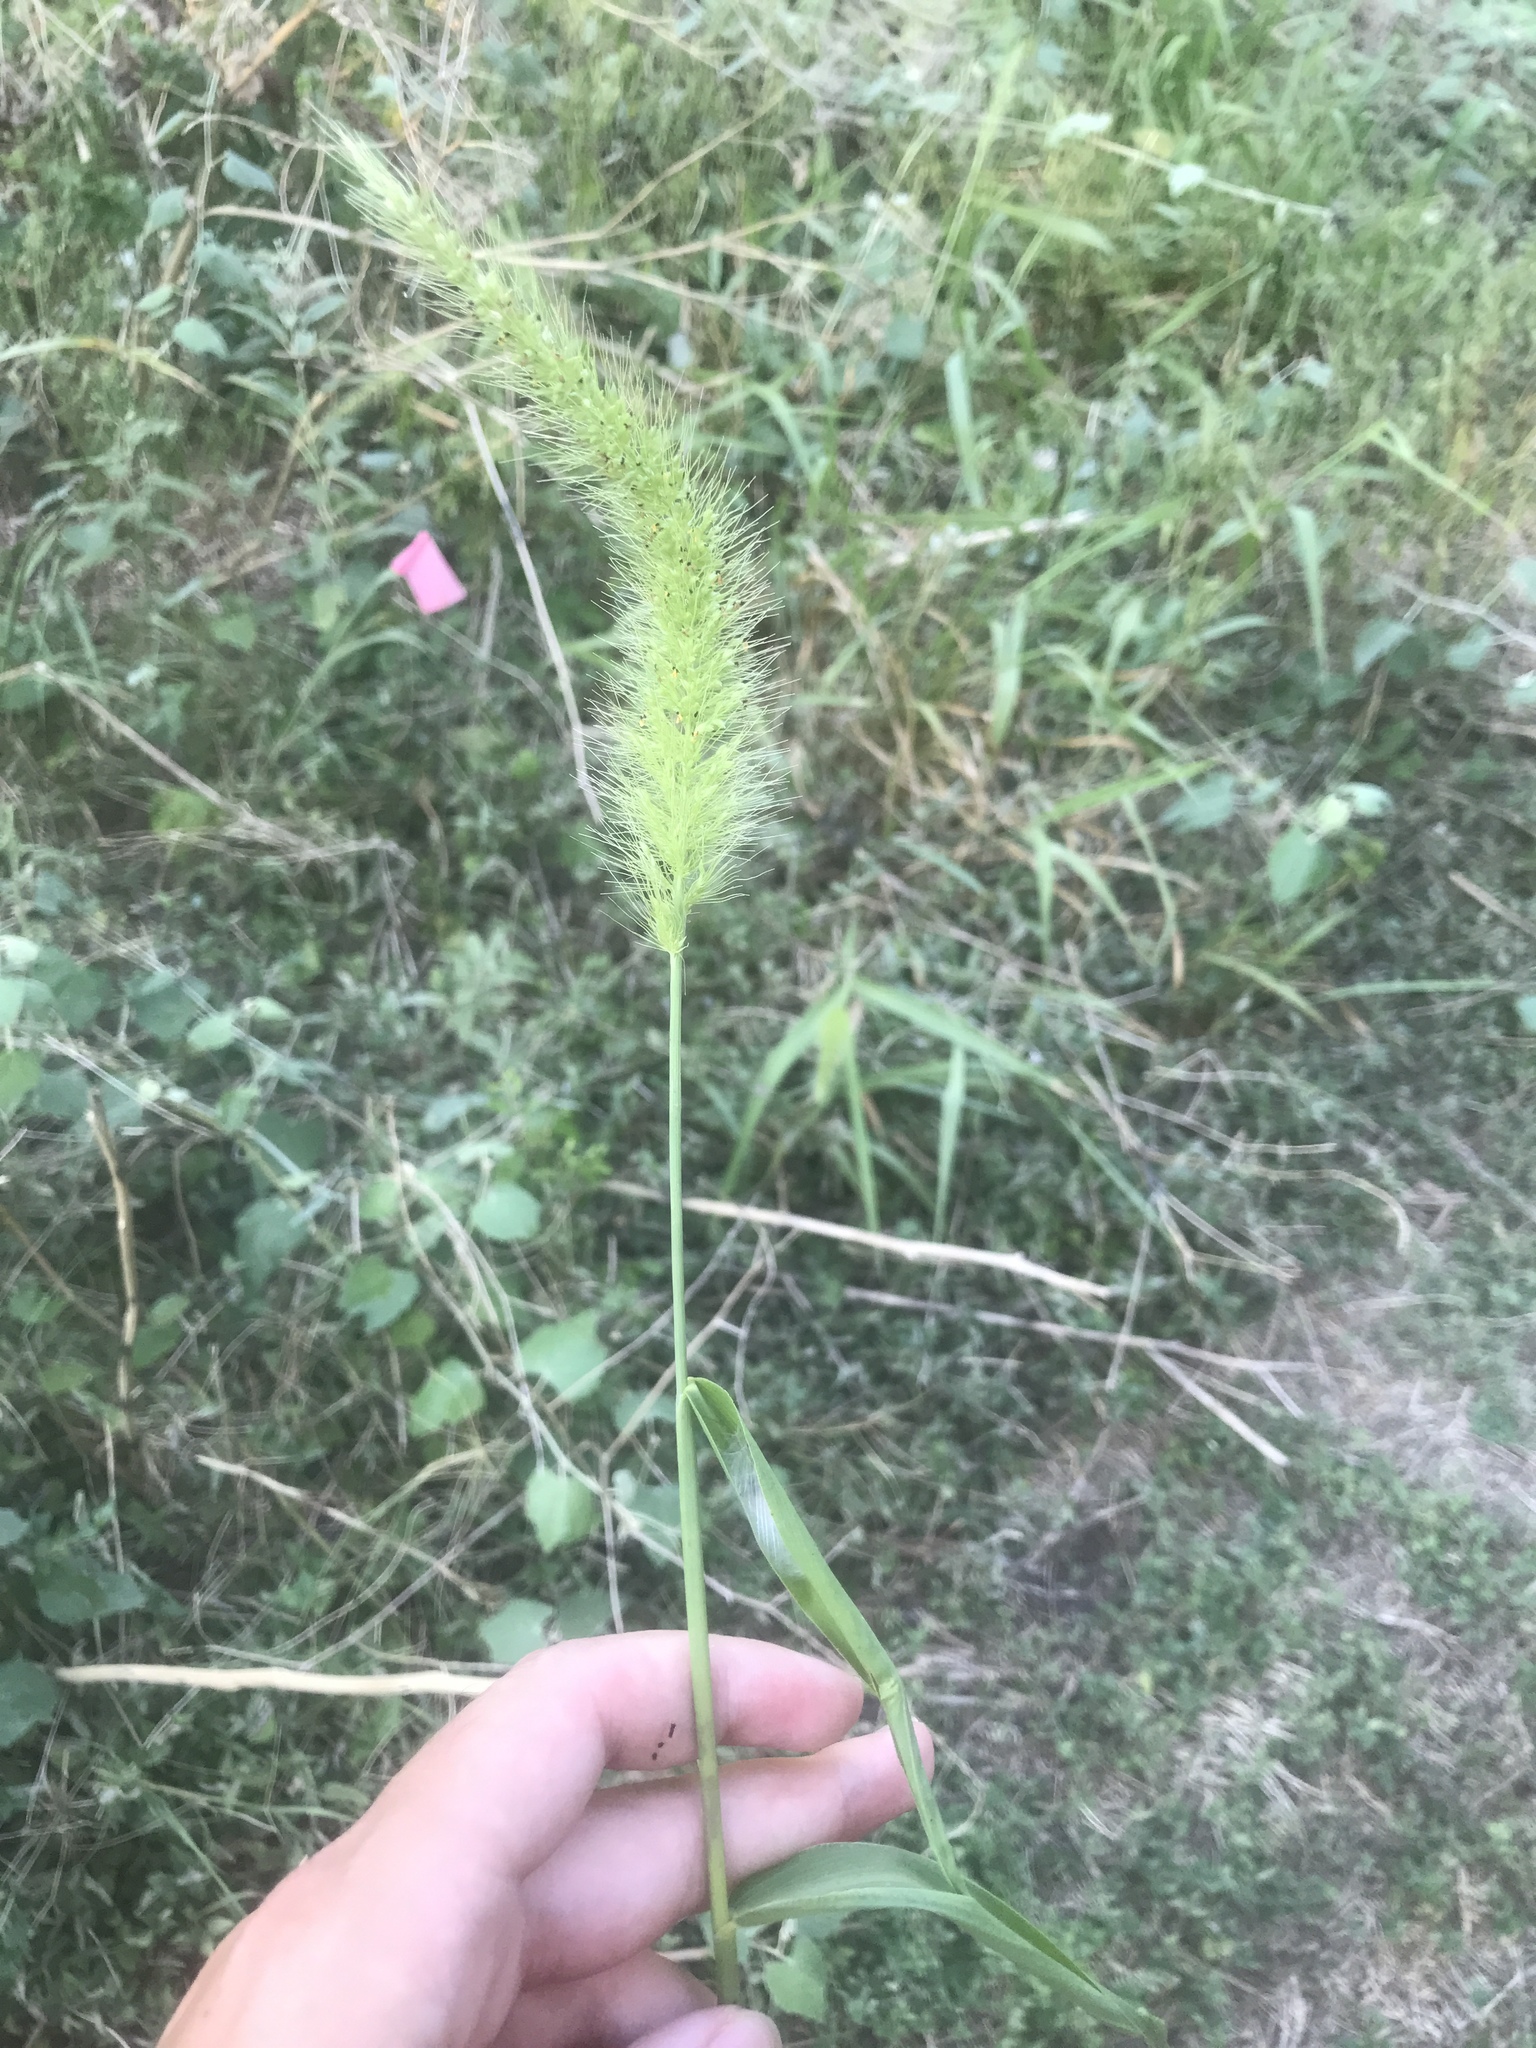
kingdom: Plantae
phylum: Tracheophyta
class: Liliopsida
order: Poales
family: Poaceae
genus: Setaria
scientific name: Setaria scheelei
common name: Southwestern bristle grass
